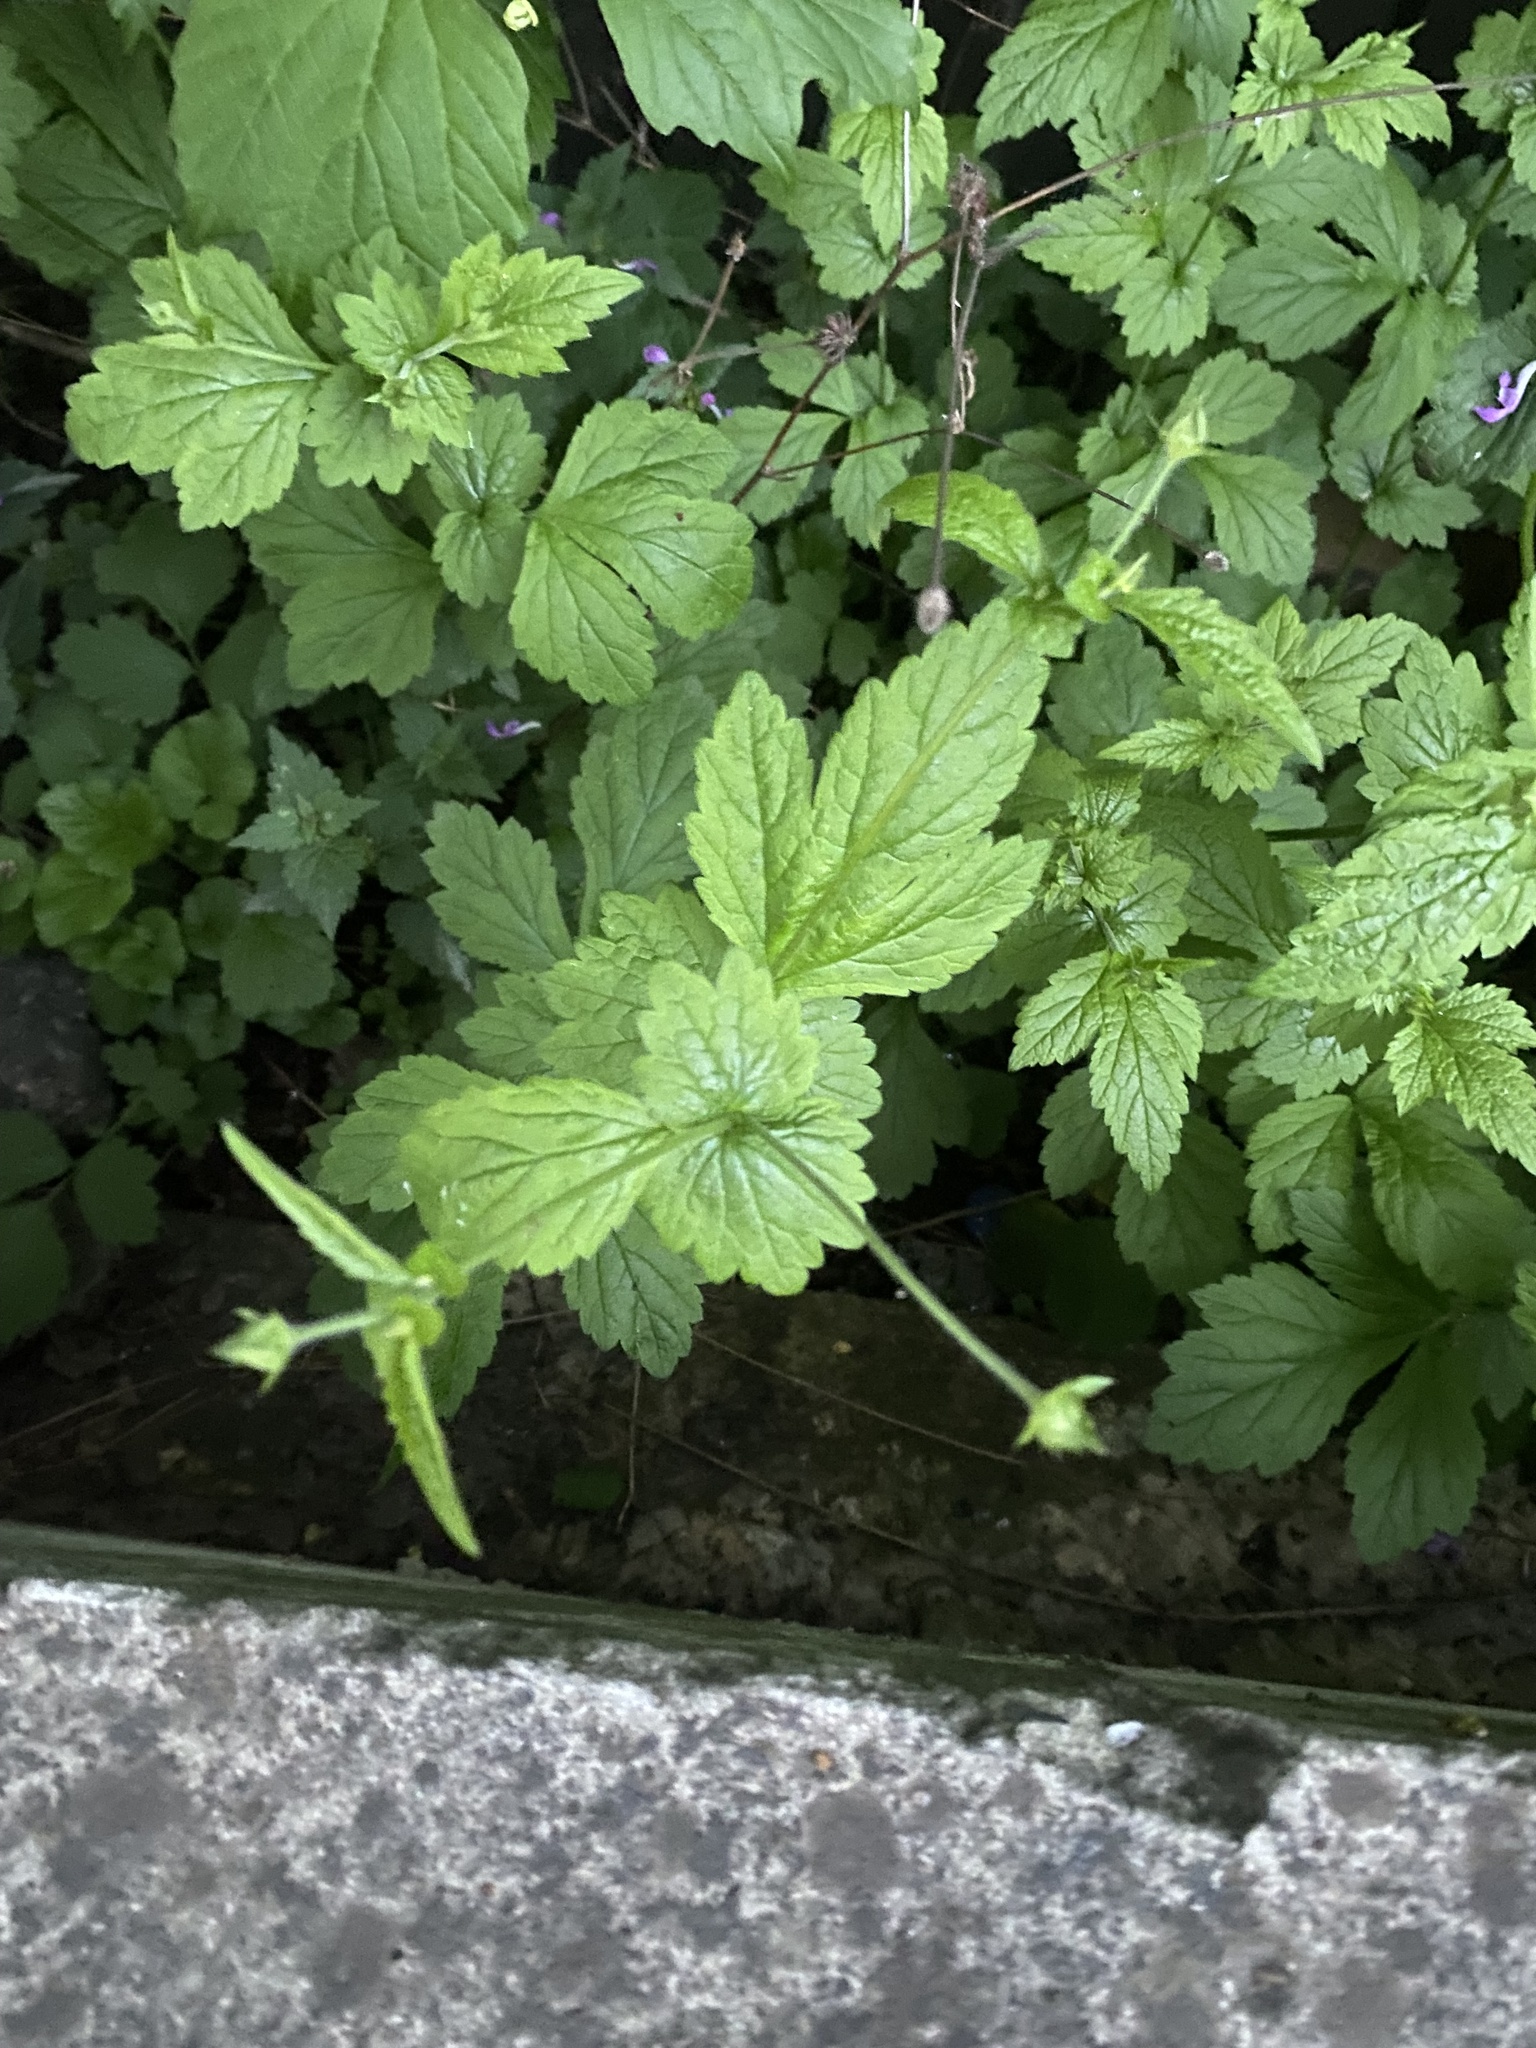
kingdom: Plantae
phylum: Tracheophyta
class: Magnoliopsida
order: Rosales
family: Rosaceae
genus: Geum
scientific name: Geum urbanum
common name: Wood avens
